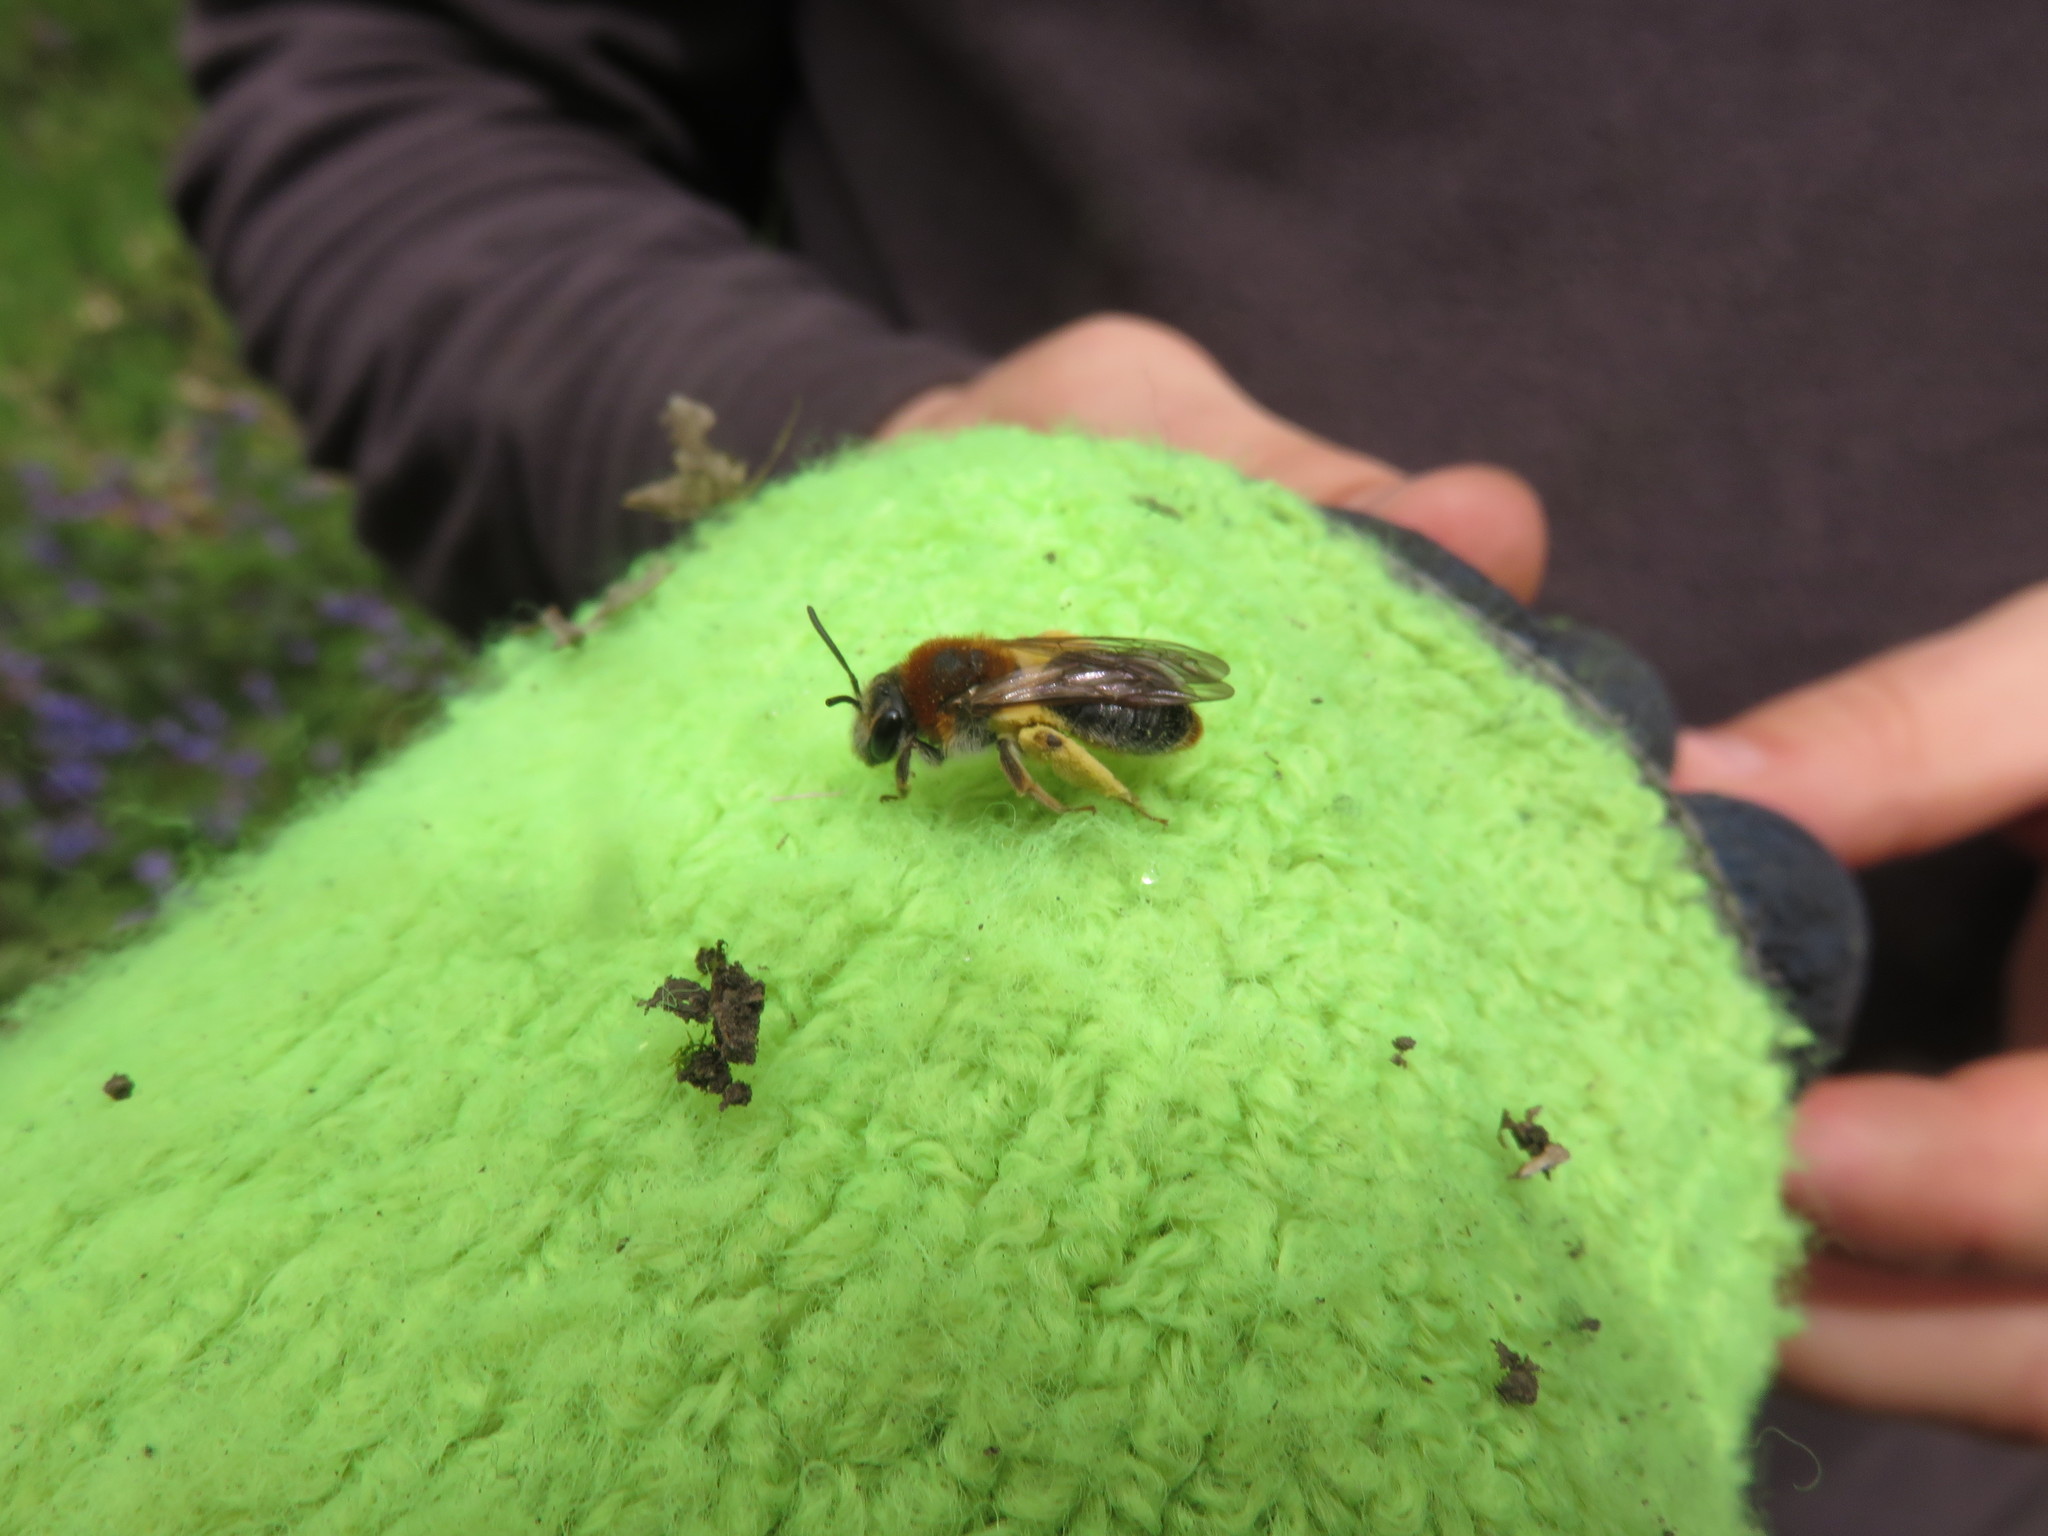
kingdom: Animalia
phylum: Arthropoda
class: Insecta
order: Hymenoptera
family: Andrenidae
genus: Andrena
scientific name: Andrena haemorrhoa
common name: Early mining bee
